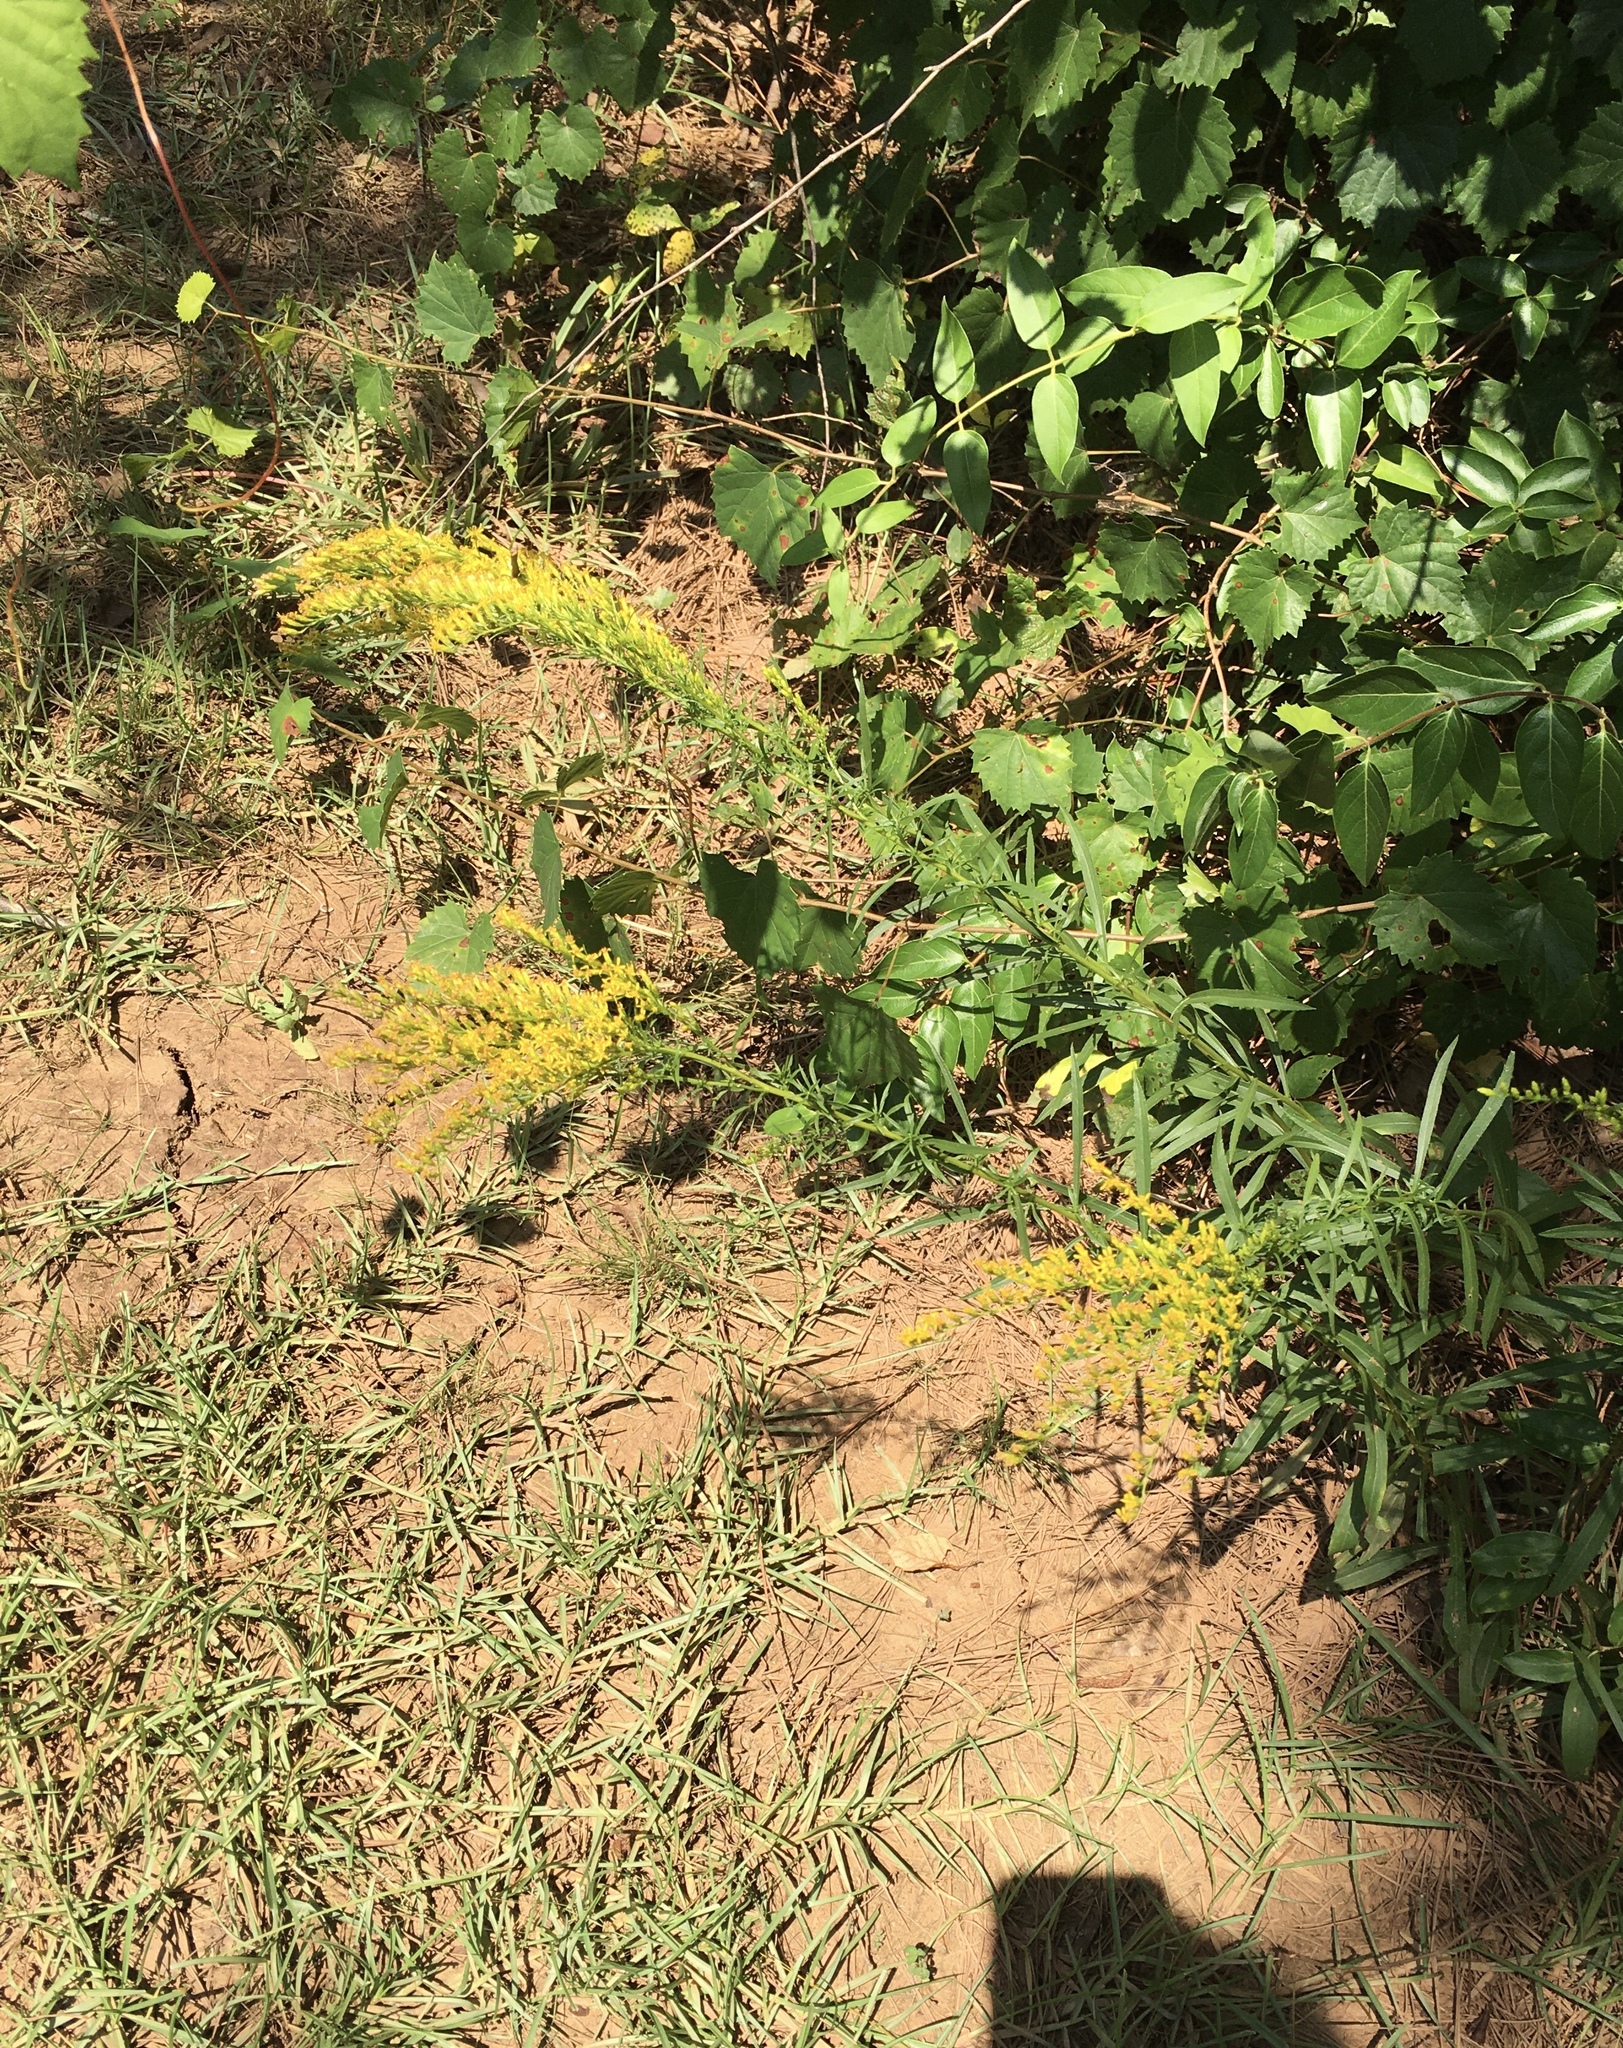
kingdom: Plantae
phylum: Tracheophyta
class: Magnoliopsida
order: Asterales
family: Asteraceae
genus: Solidago
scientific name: Solidago pinetorum
